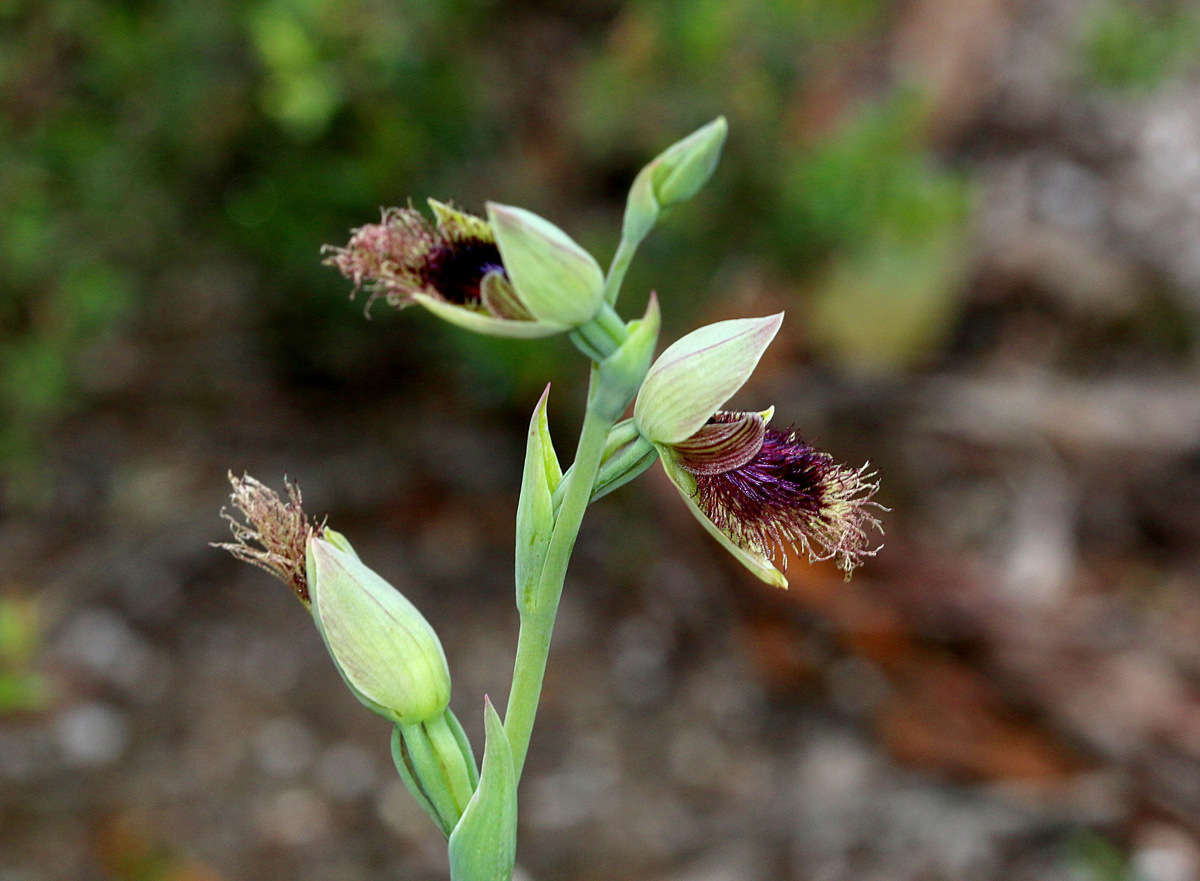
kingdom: Plantae
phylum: Tracheophyta
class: Liliopsida
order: Asparagales
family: Orchidaceae
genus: Calochilus
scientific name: Calochilus robertsonii
